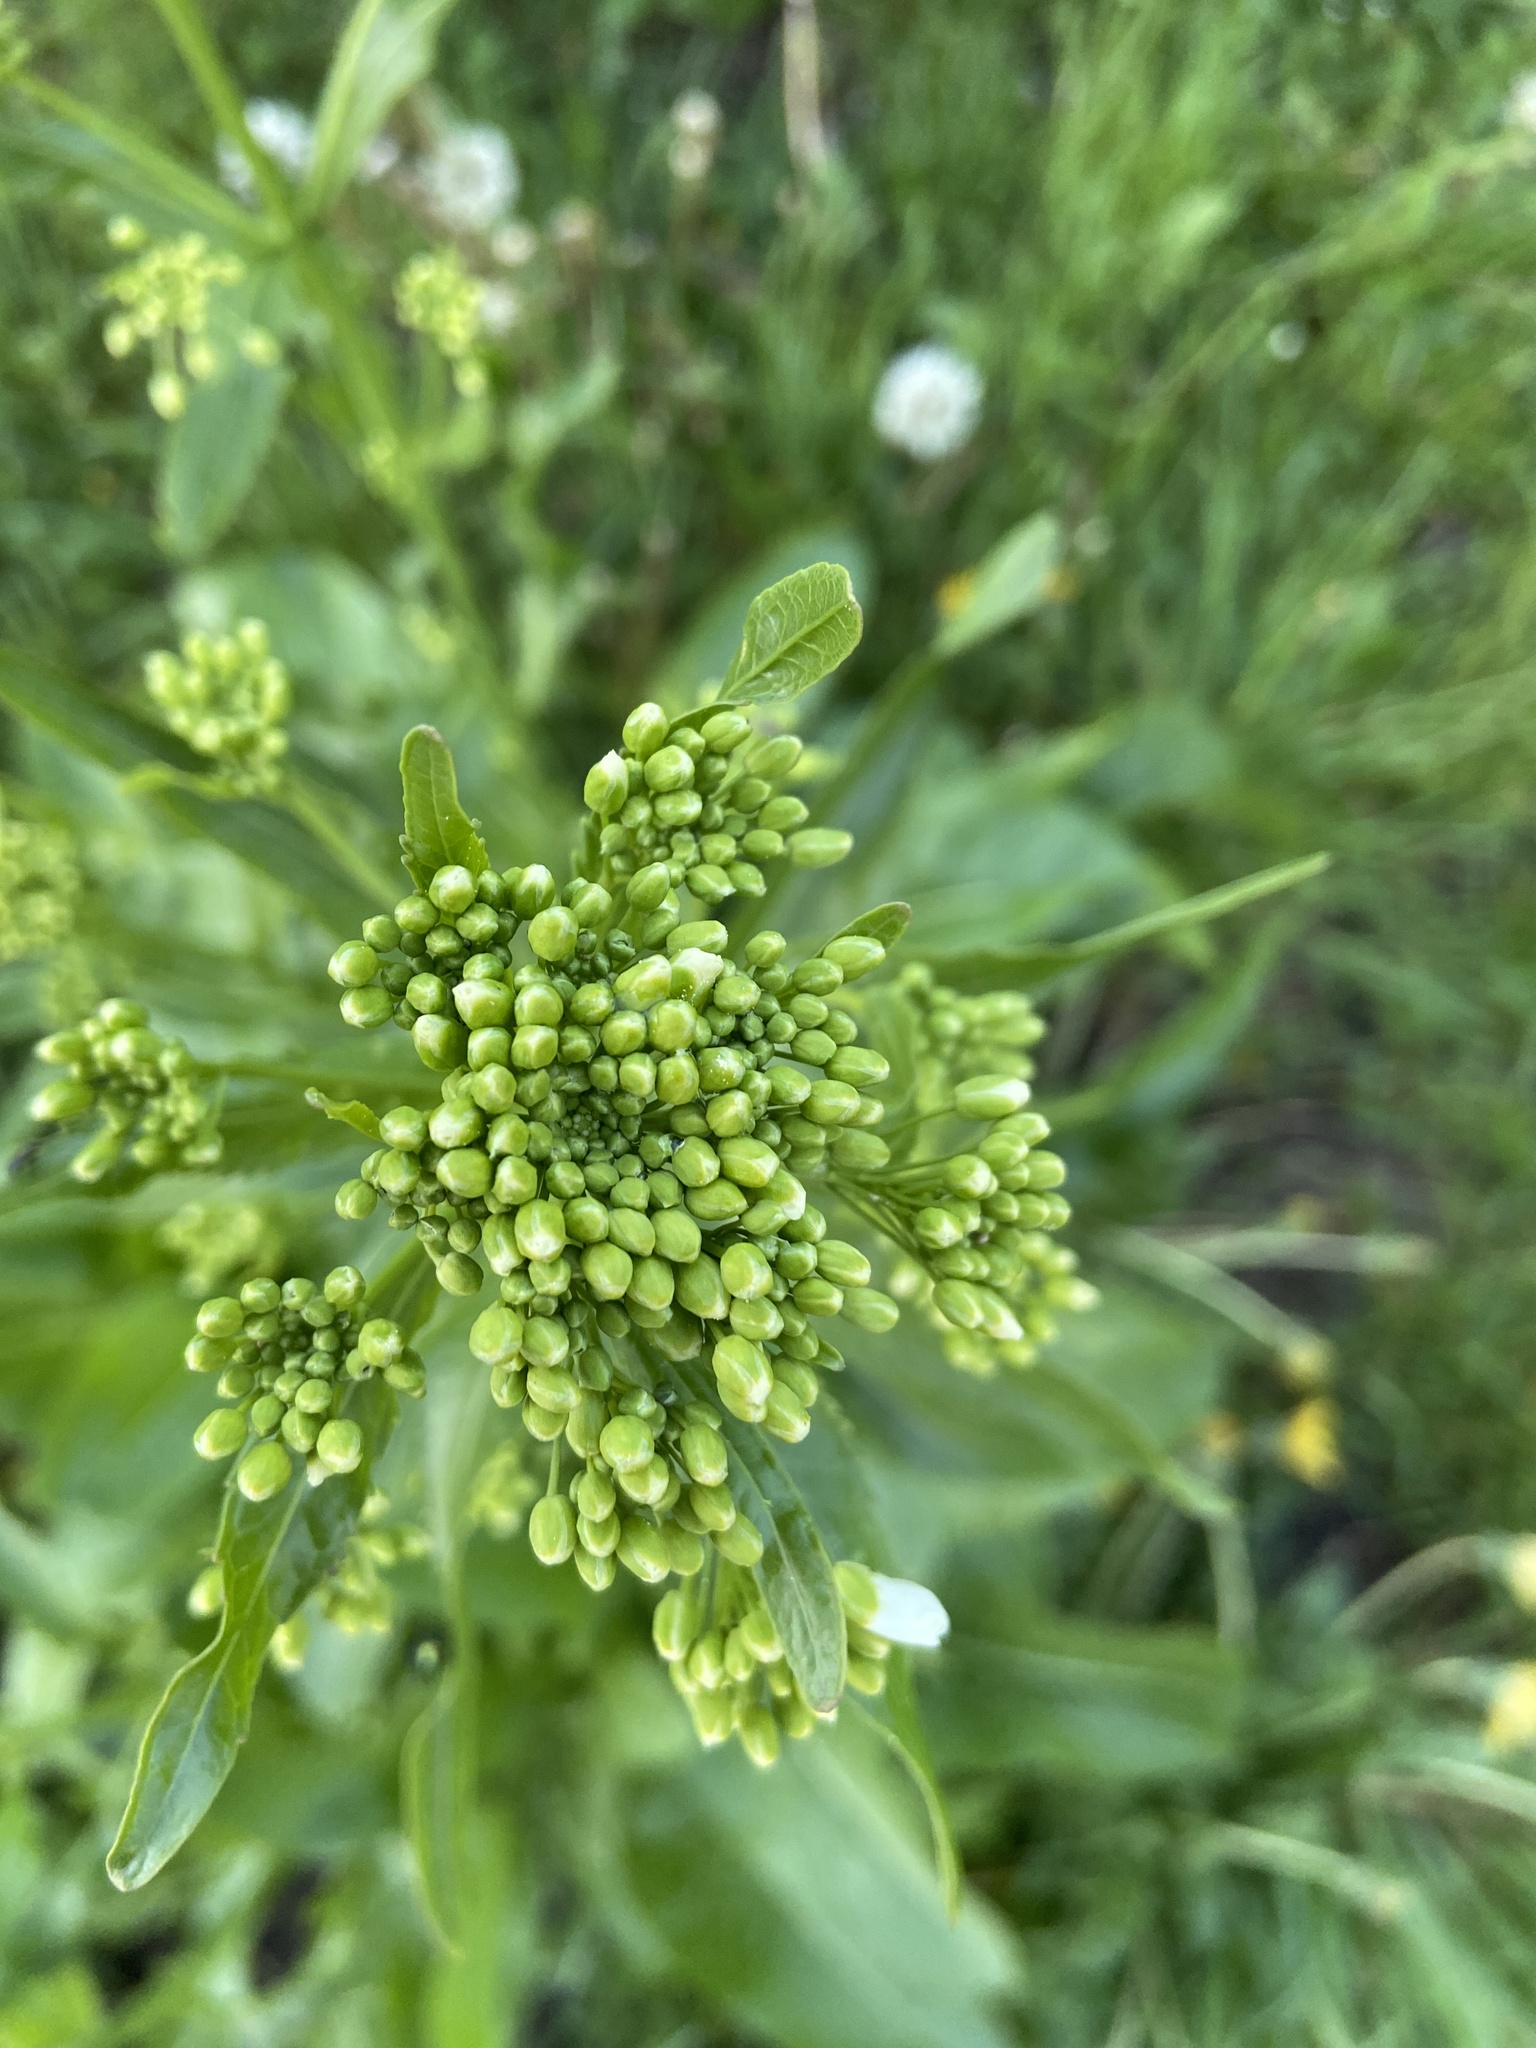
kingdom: Plantae
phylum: Tracheophyta
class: Magnoliopsida
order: Brassicales
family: Brassicaceae
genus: Armoracia
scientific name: Armoracia rusticana
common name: Horseradish
